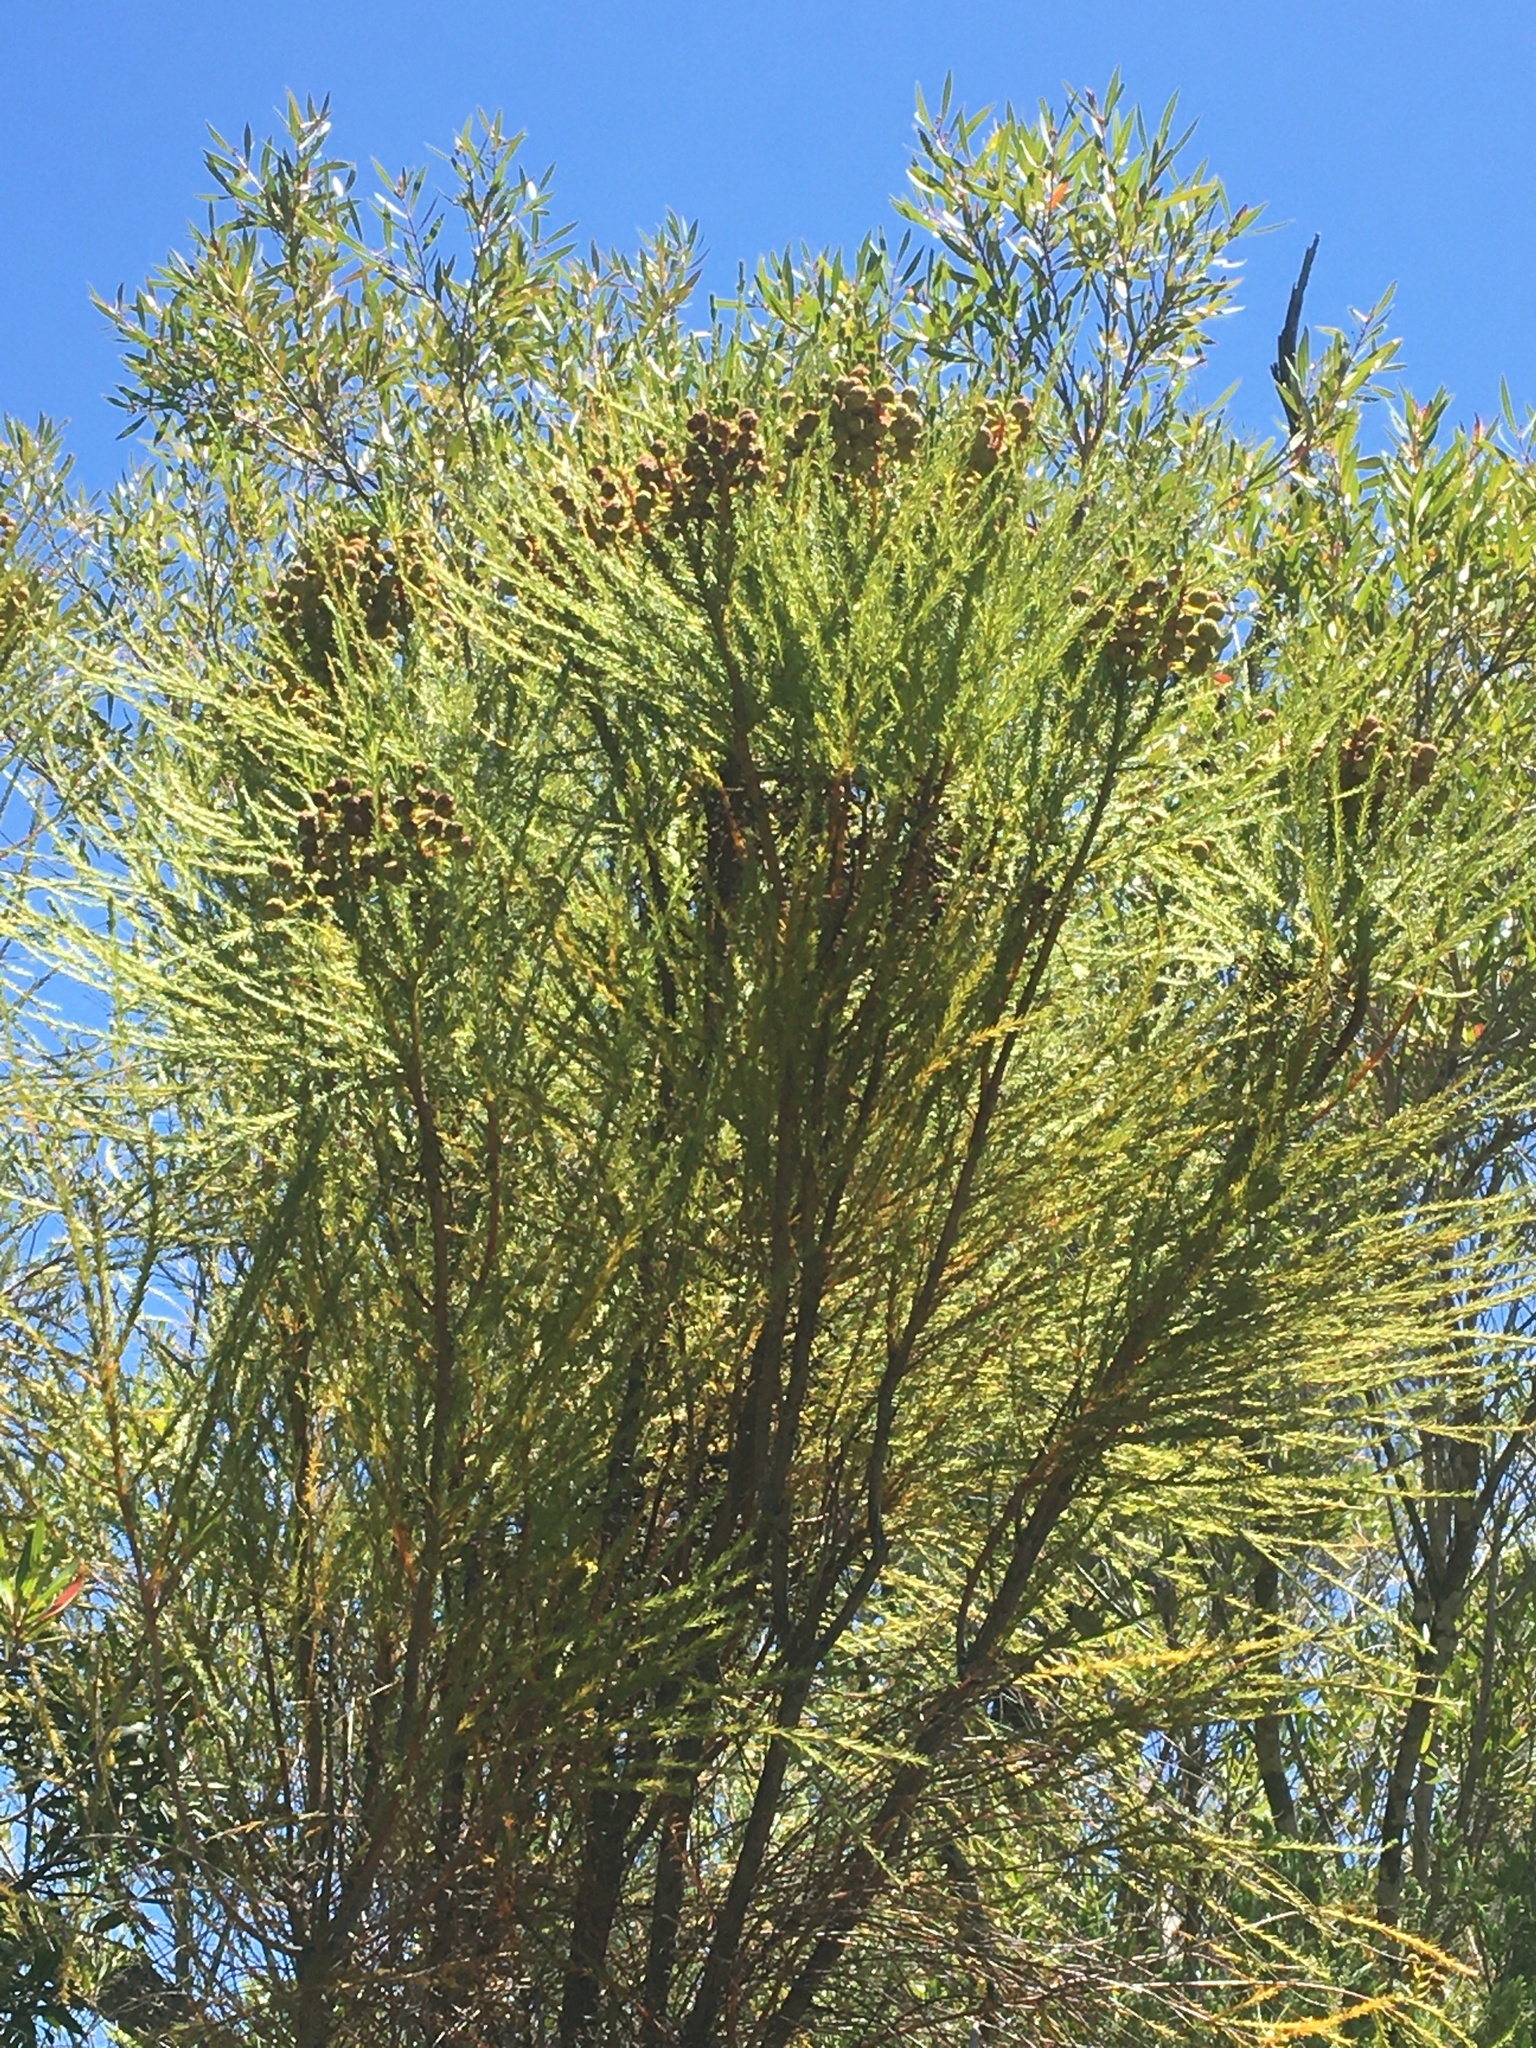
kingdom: Plantae
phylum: Tracheophyta
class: Magnoliopsida
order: Bruniales
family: Bruniaceae
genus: Berzelia
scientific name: Berzelia lanuginosa
